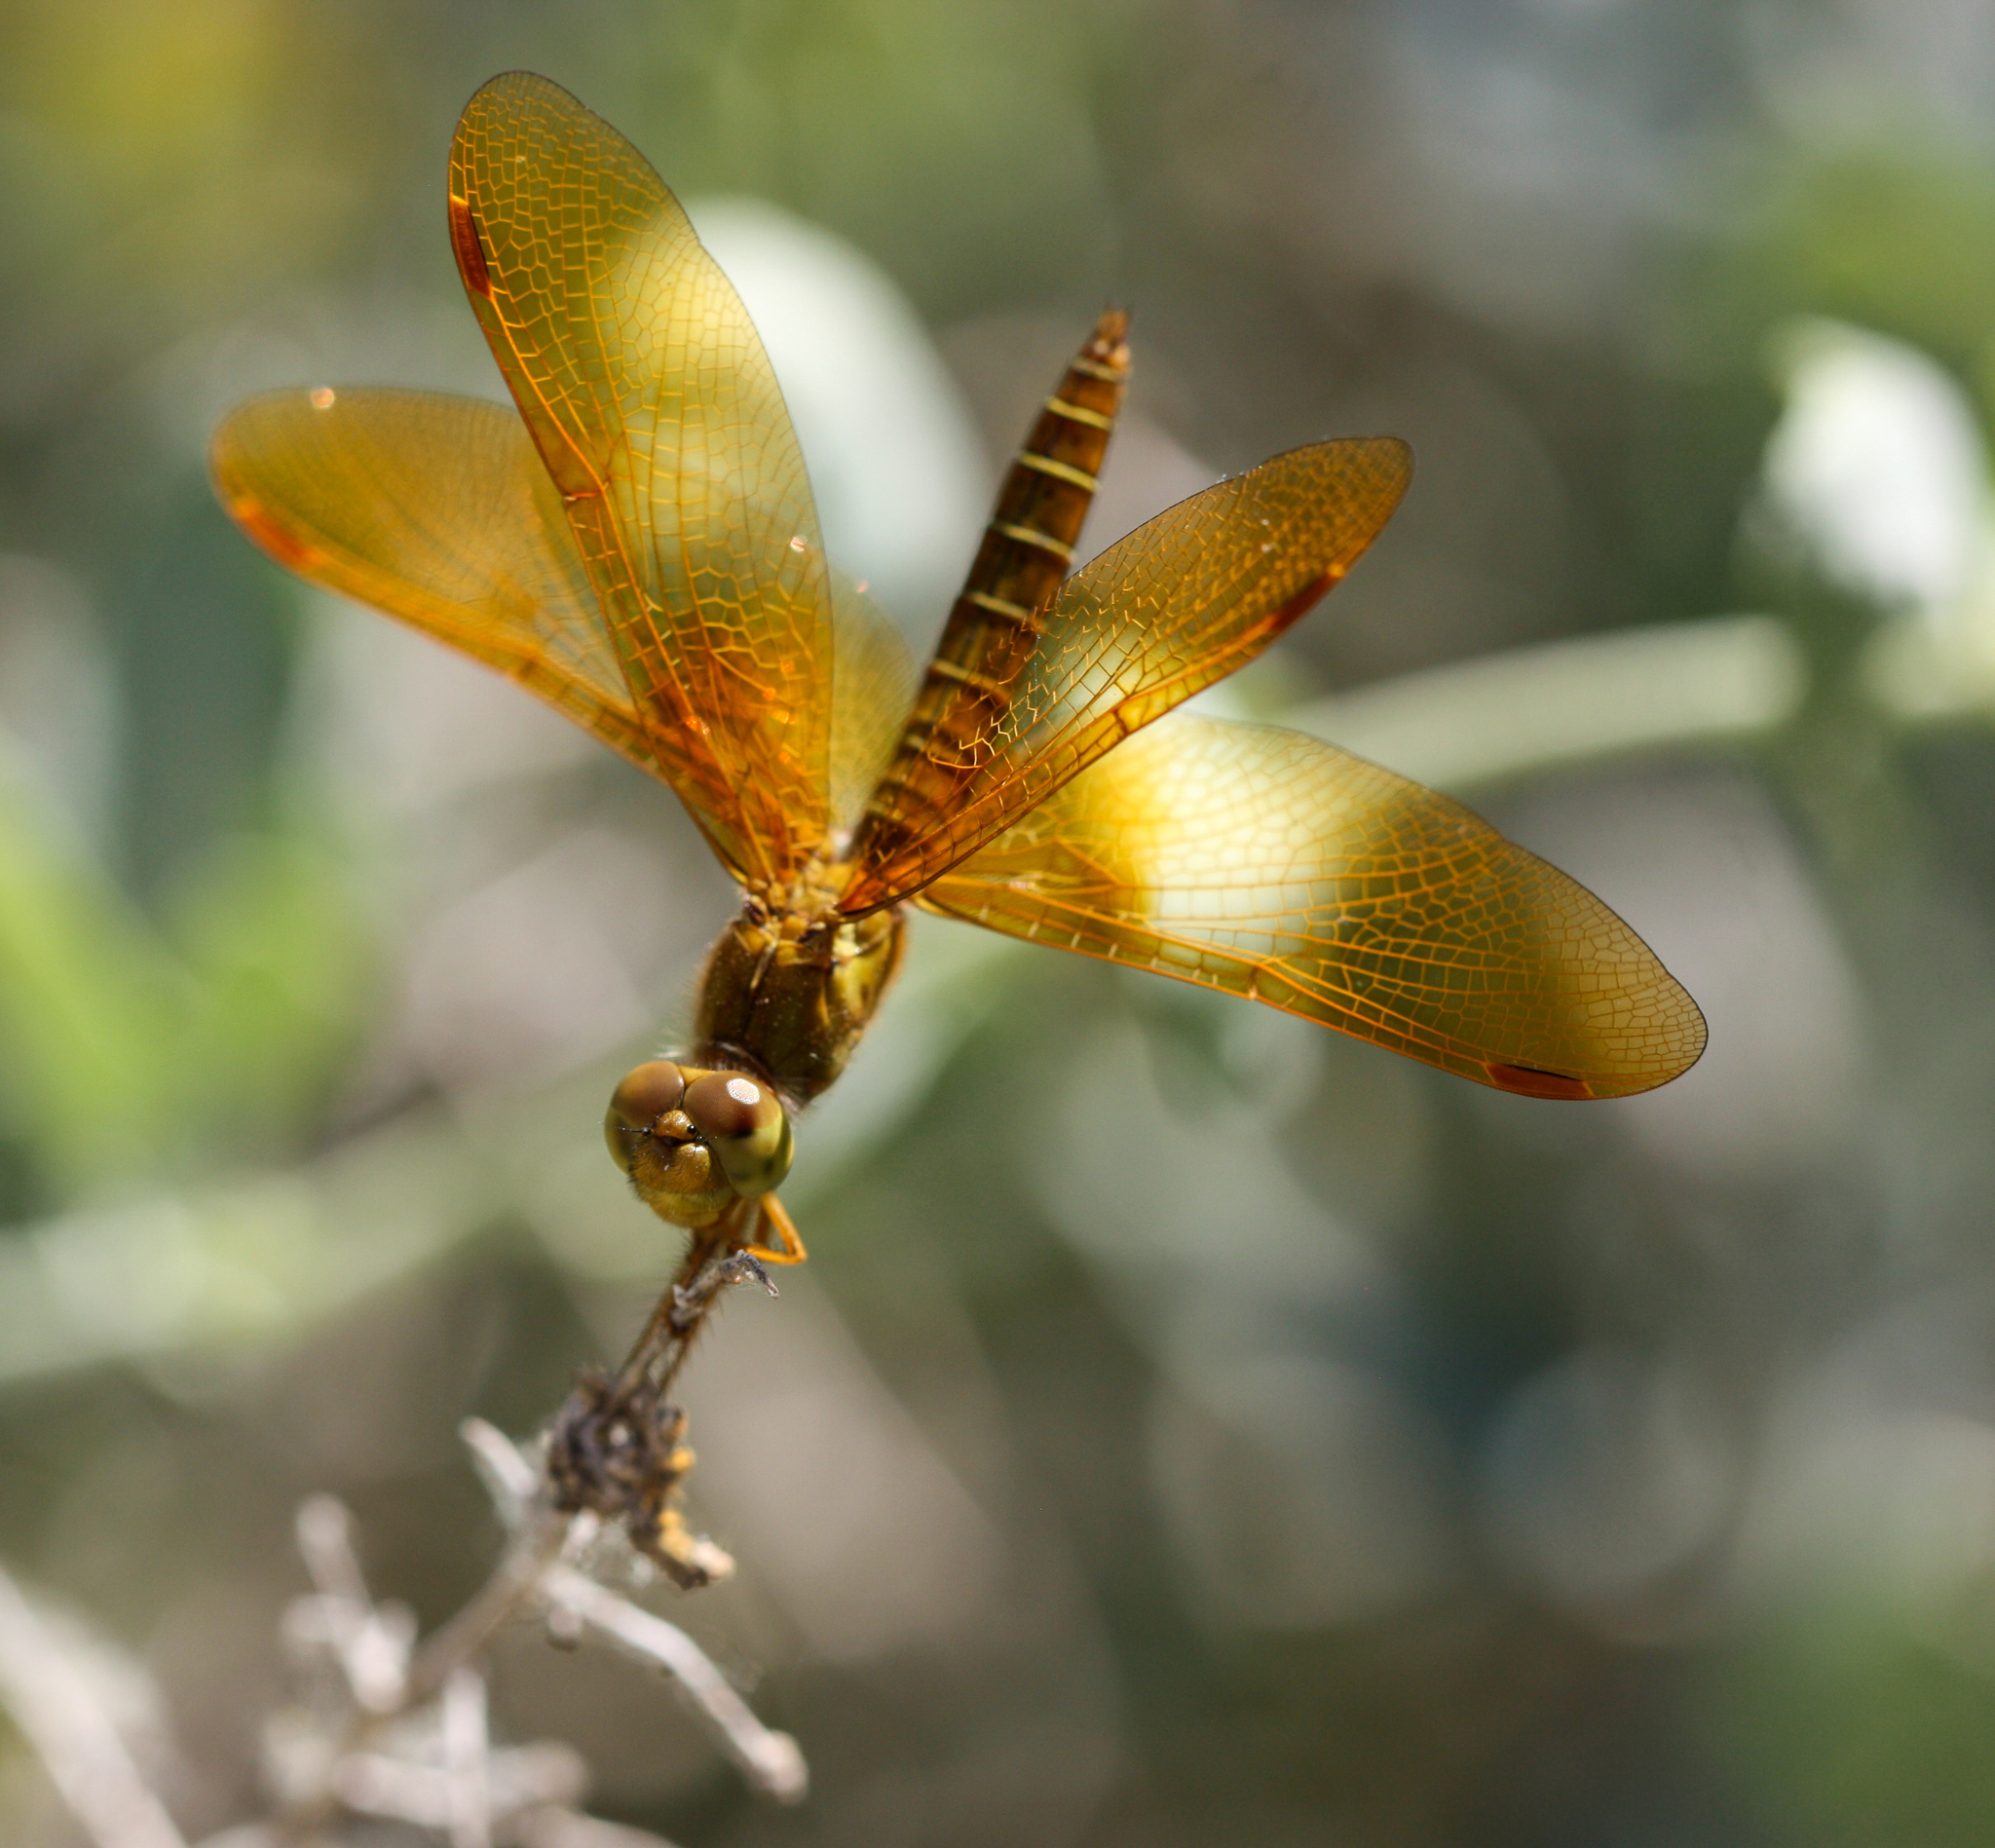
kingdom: Animalia
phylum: Arthropoda
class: Insecta
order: Odonata
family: Libellulidae
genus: Perithemis
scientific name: Perithemis intensa
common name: Mexican amberwing
